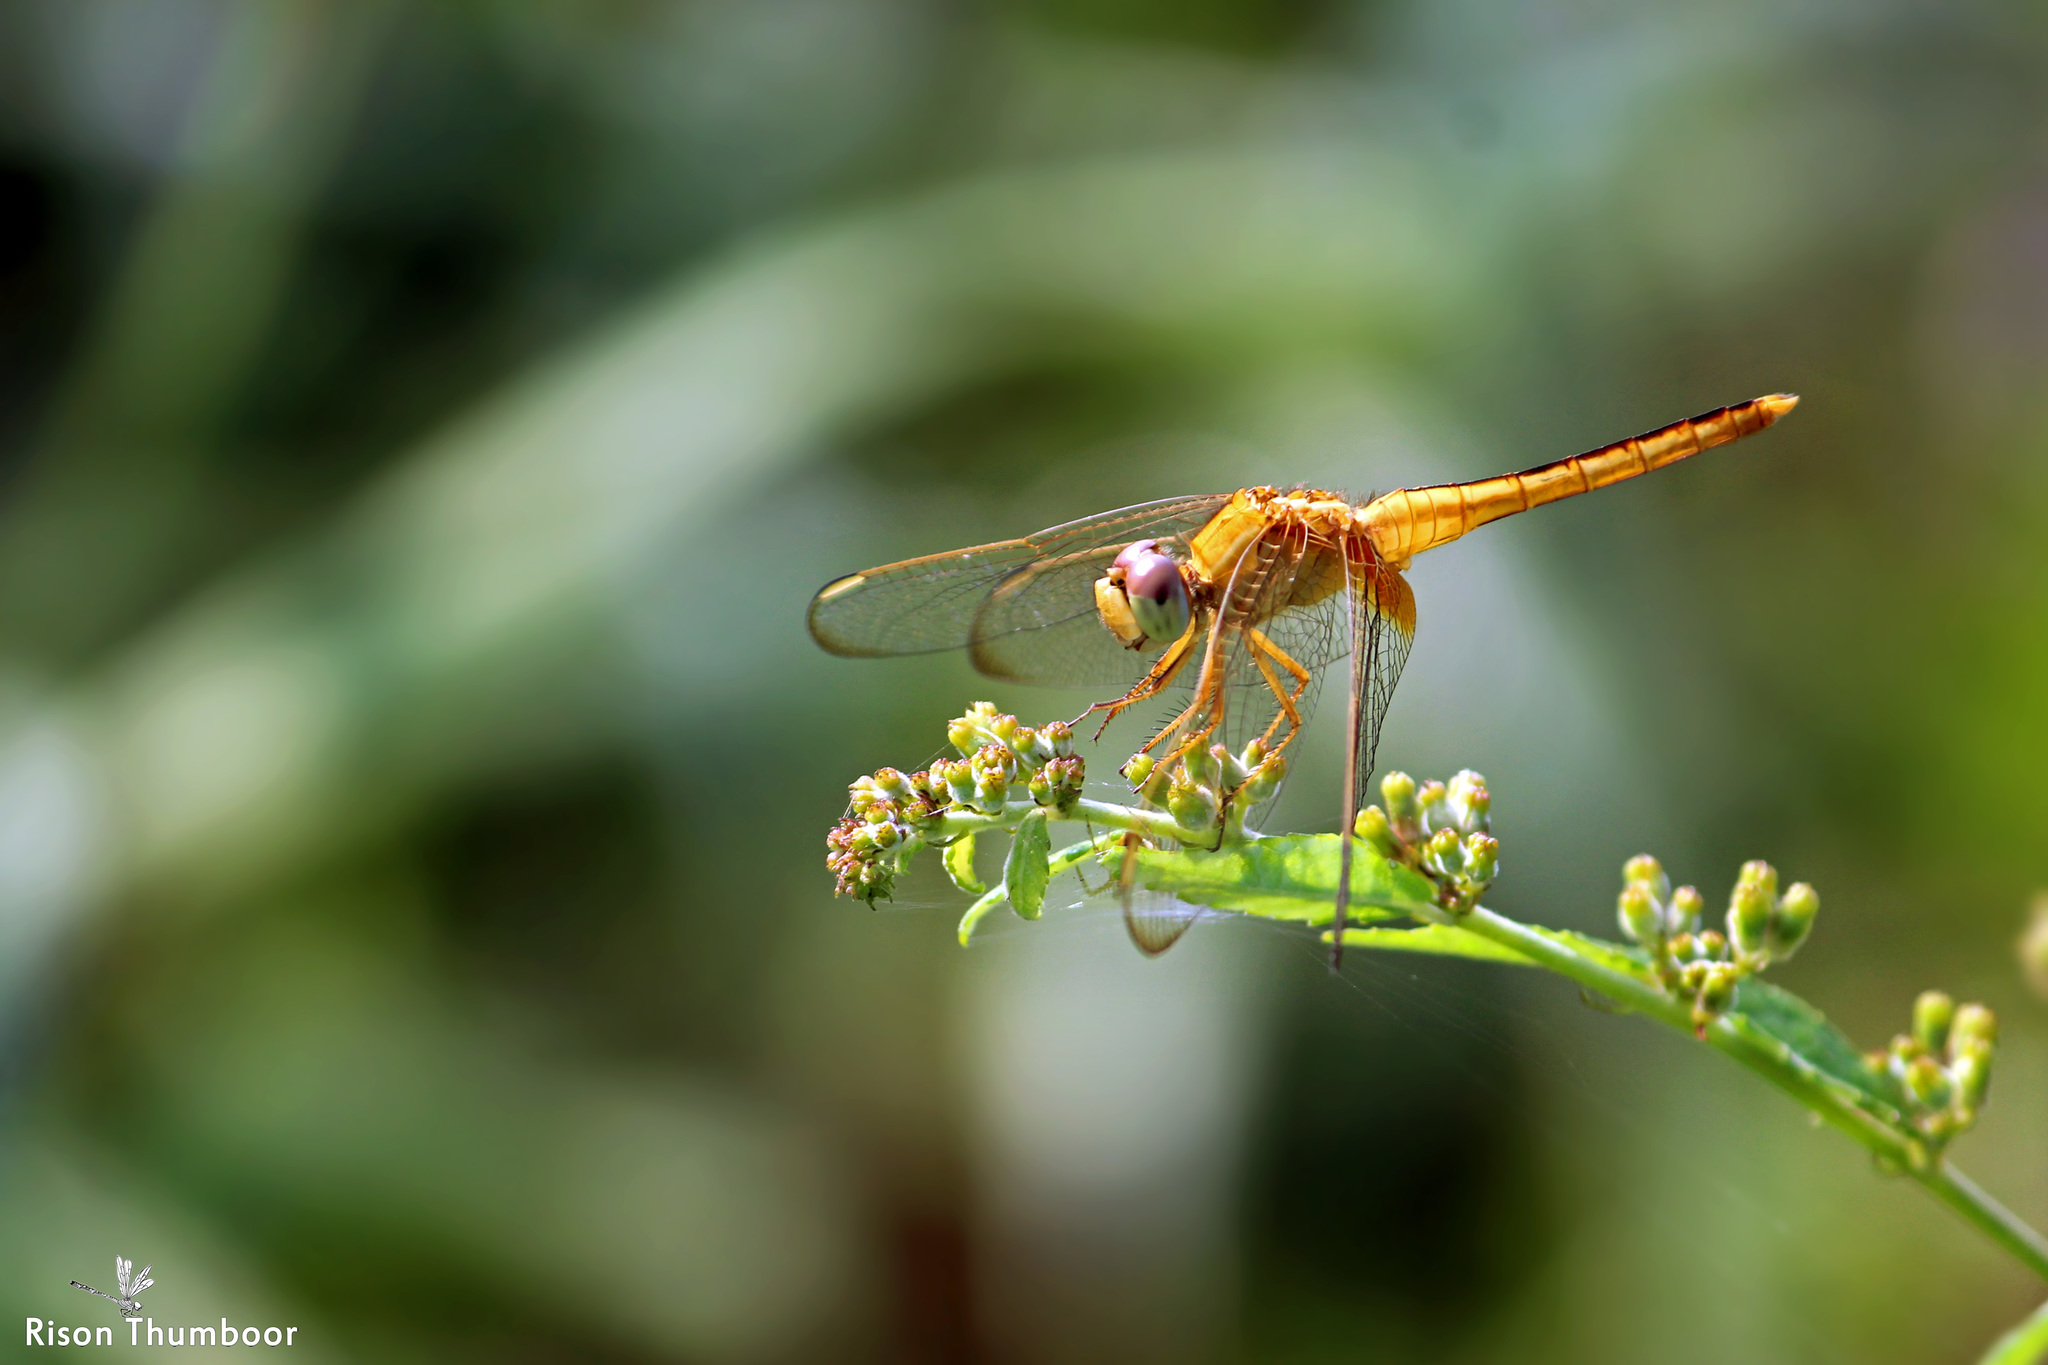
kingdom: Animalia
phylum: Arthropoda
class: Insecta
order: Odonata
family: Libellulidae
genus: Crocothemis
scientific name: Crocothemis servilia
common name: Scarlet skimmer
